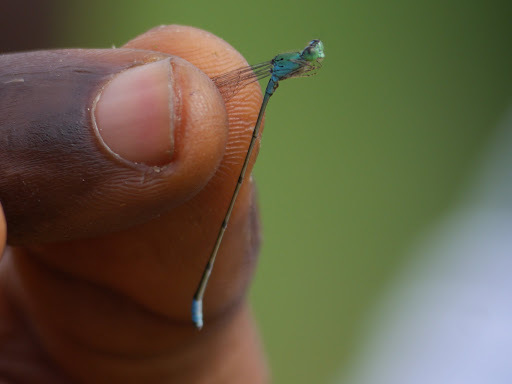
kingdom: Animalia
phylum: Arthropoda
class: Insecta
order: Odonata
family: Coenagrionidae
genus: Pseudagrion
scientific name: Pseudagrion glaucum
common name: Slender sprite
